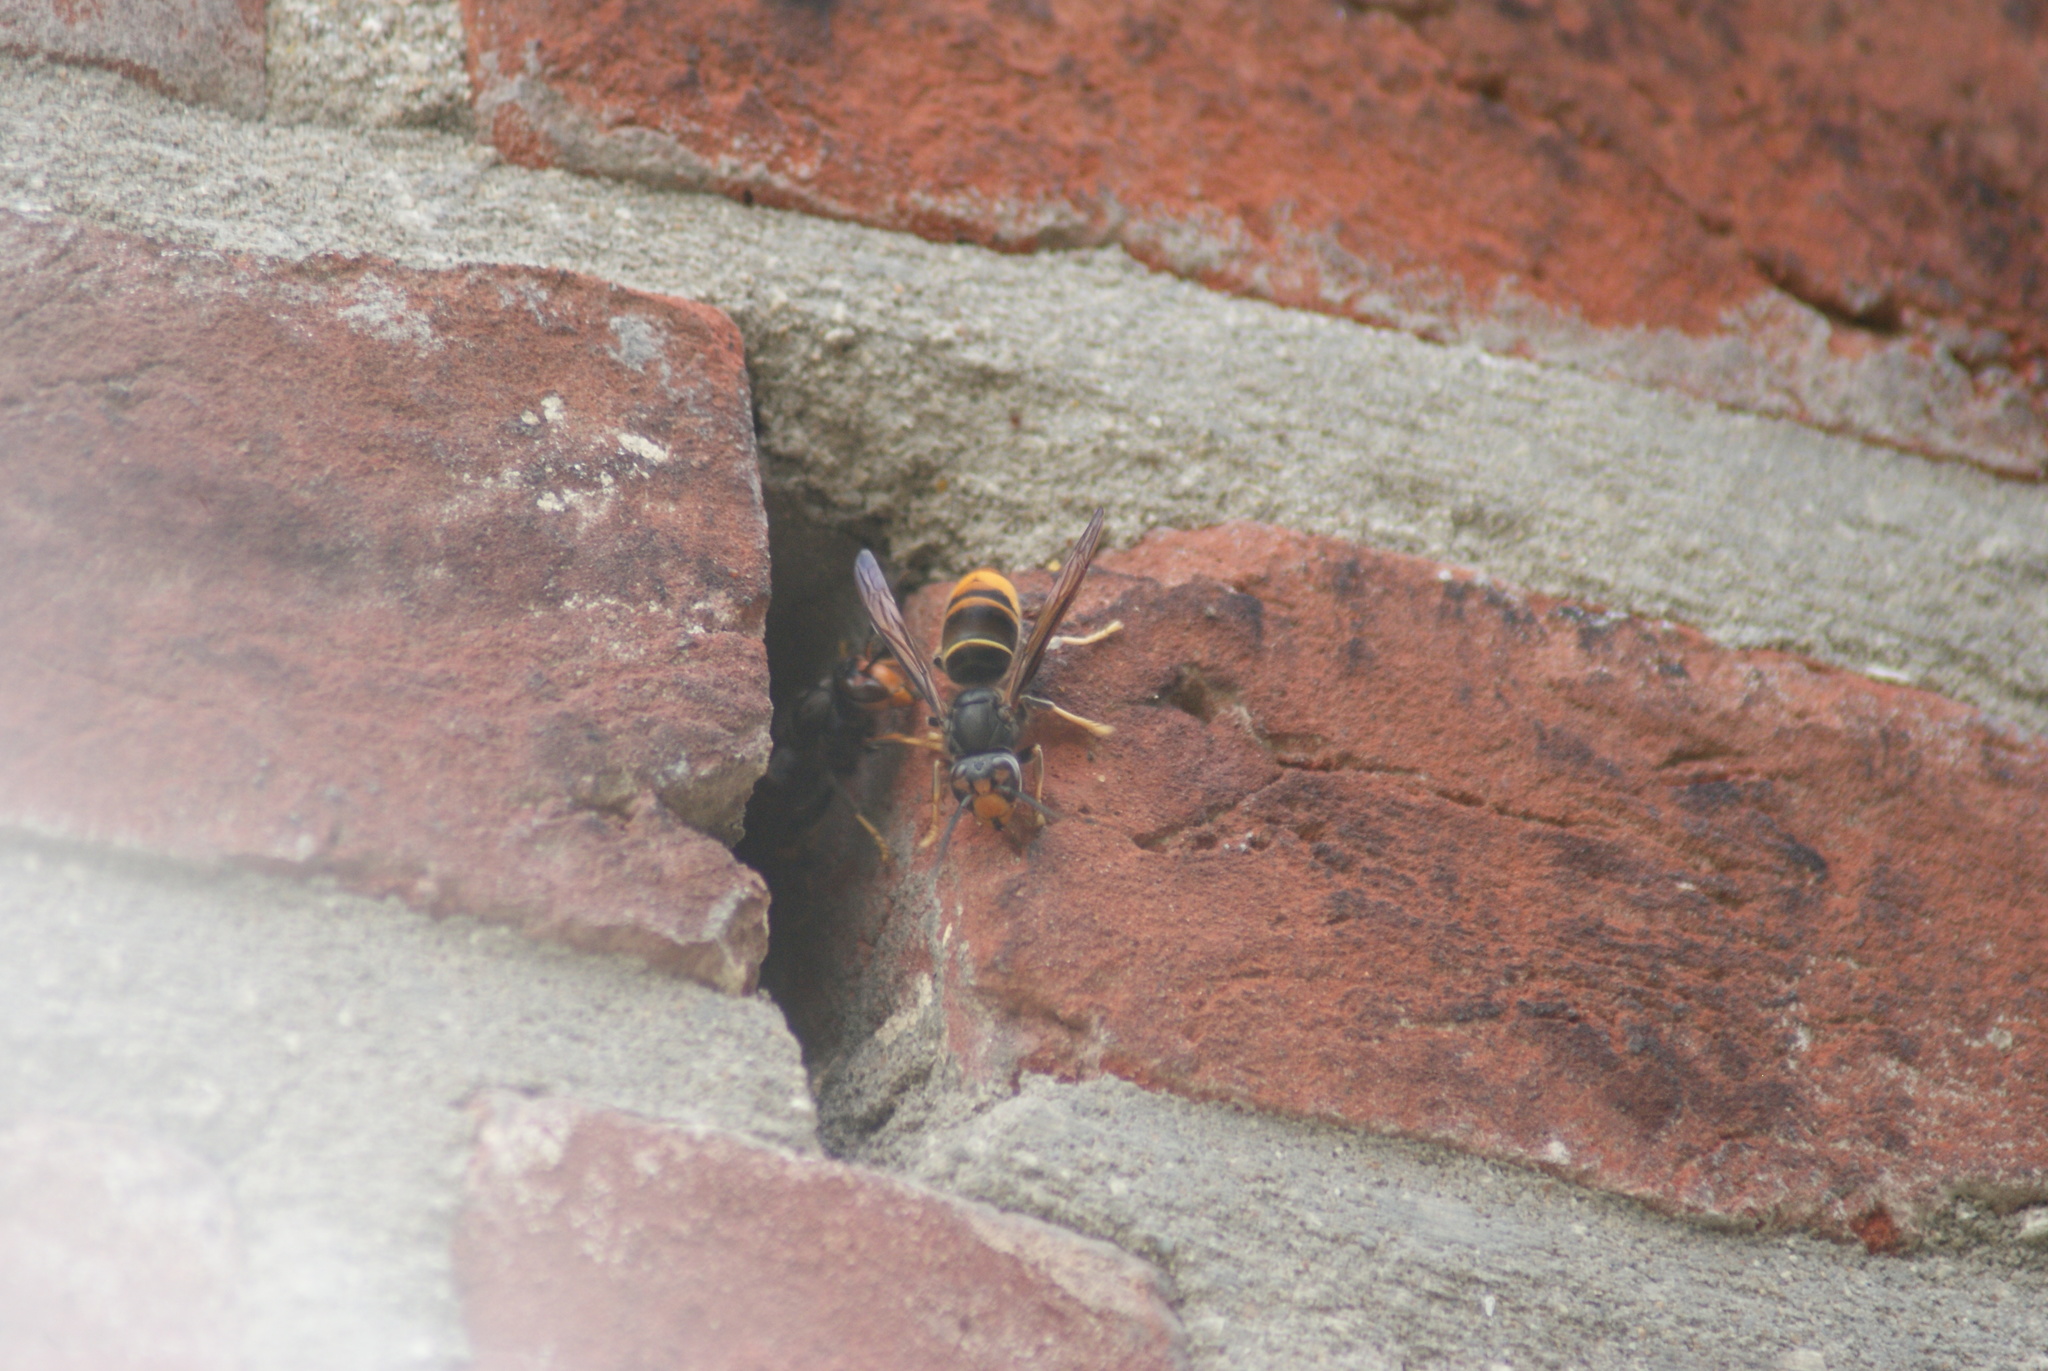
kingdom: Animalia
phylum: Arthropoda
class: Insecta
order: Hymenoptera
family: Vespidae
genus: Vespa
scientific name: Vespa velutina
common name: Asian hornet
